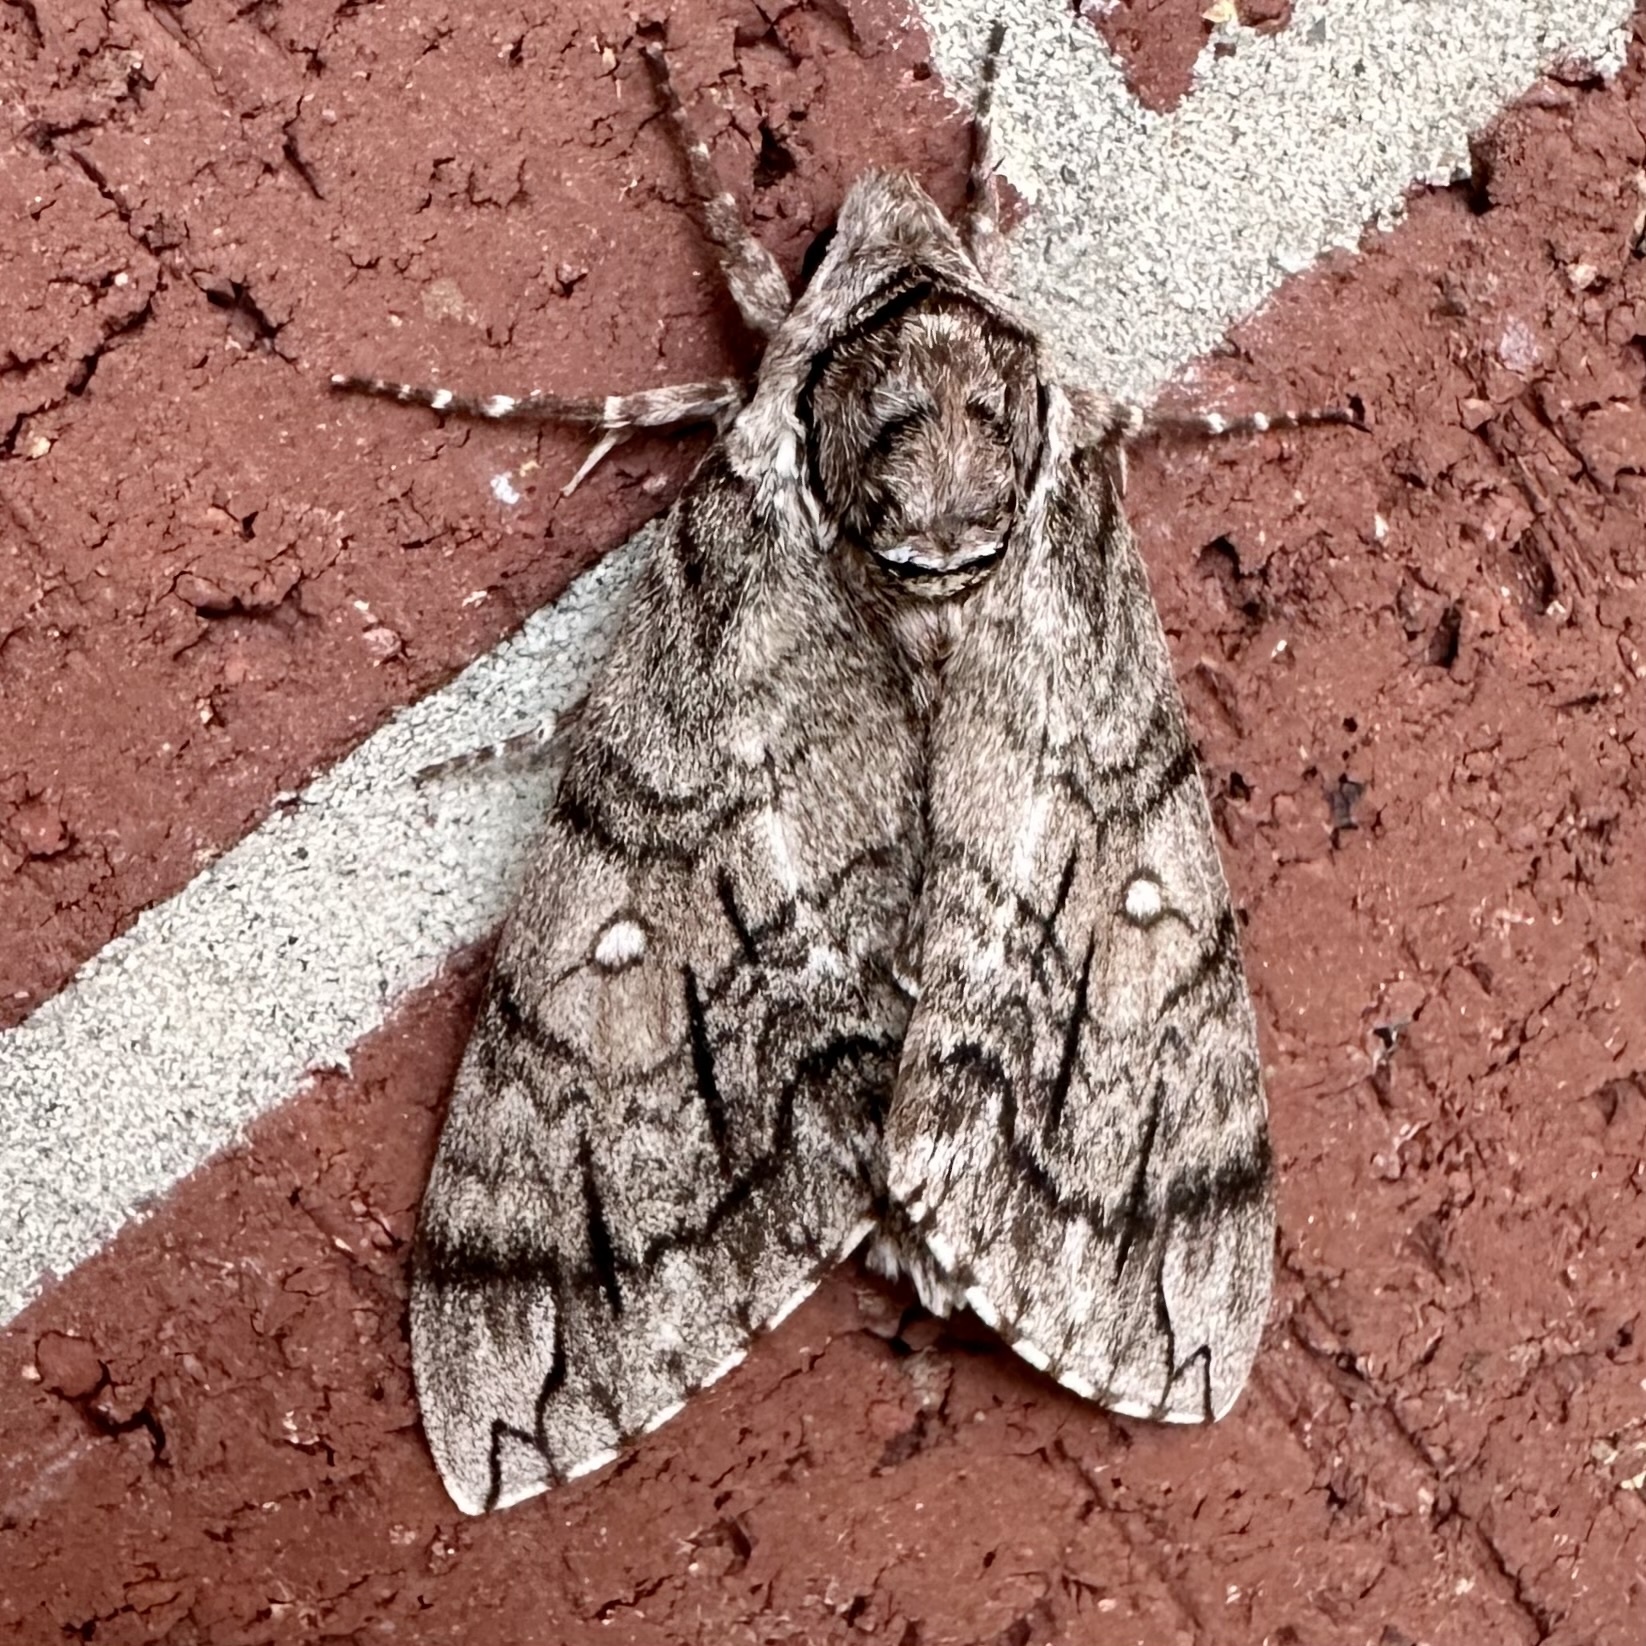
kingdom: Animalia
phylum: Arthropoda
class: Insecta
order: Lepidoptera
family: Sphingidae
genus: Ceratomia
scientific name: Ceratomia undulosa
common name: Waved sphinx
